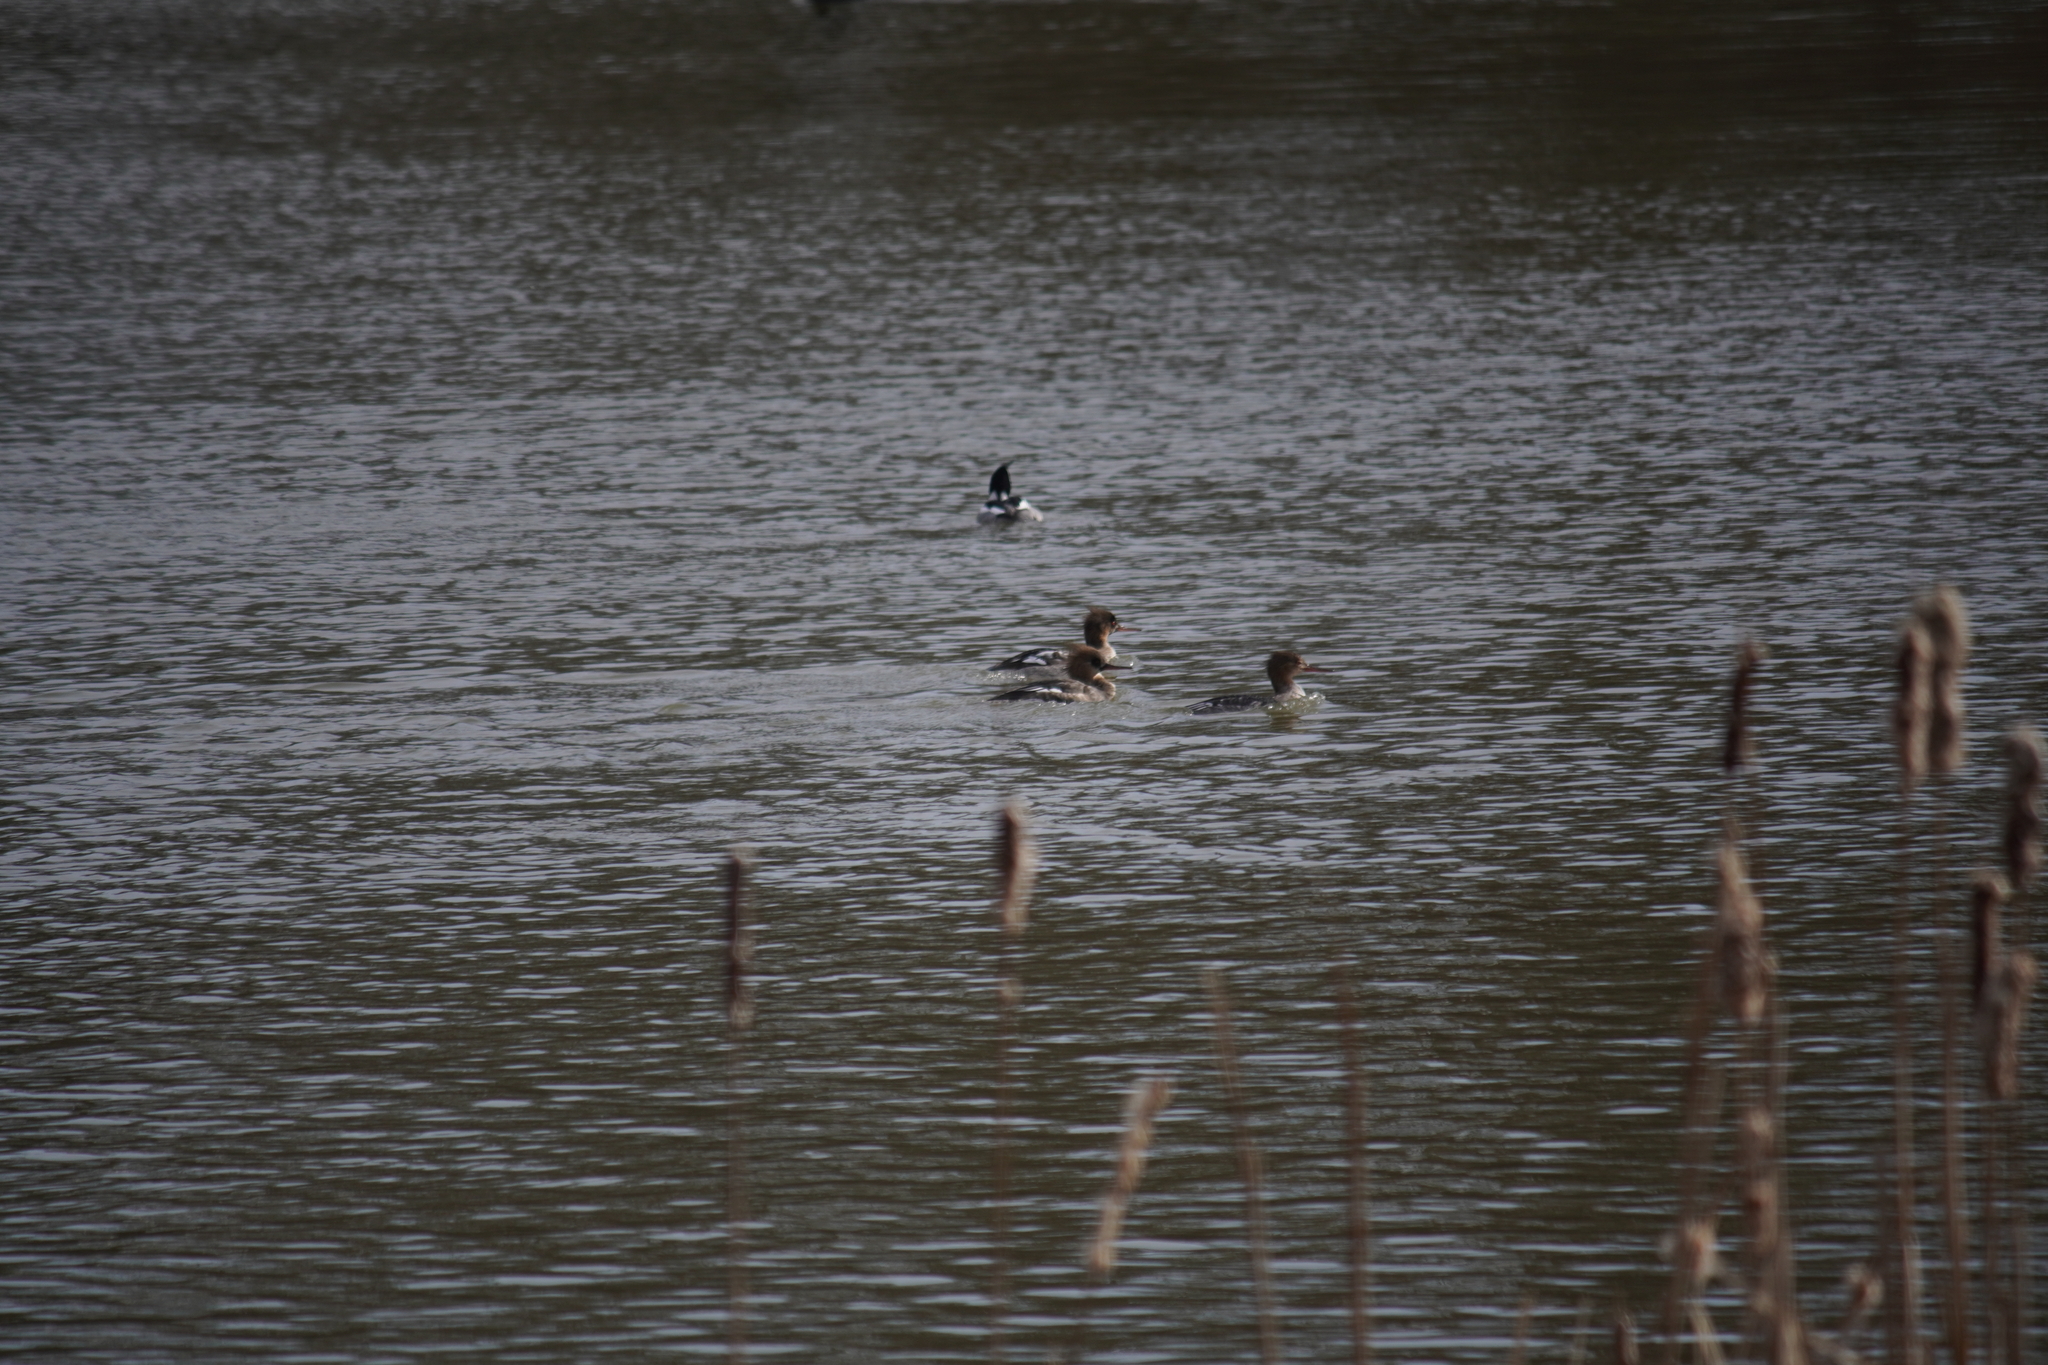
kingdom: Animalia
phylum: Chordata
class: Aves
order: Anseriformes
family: Anatidae
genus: Mergus
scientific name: Mergus serrator
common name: Red-breasted merganser
